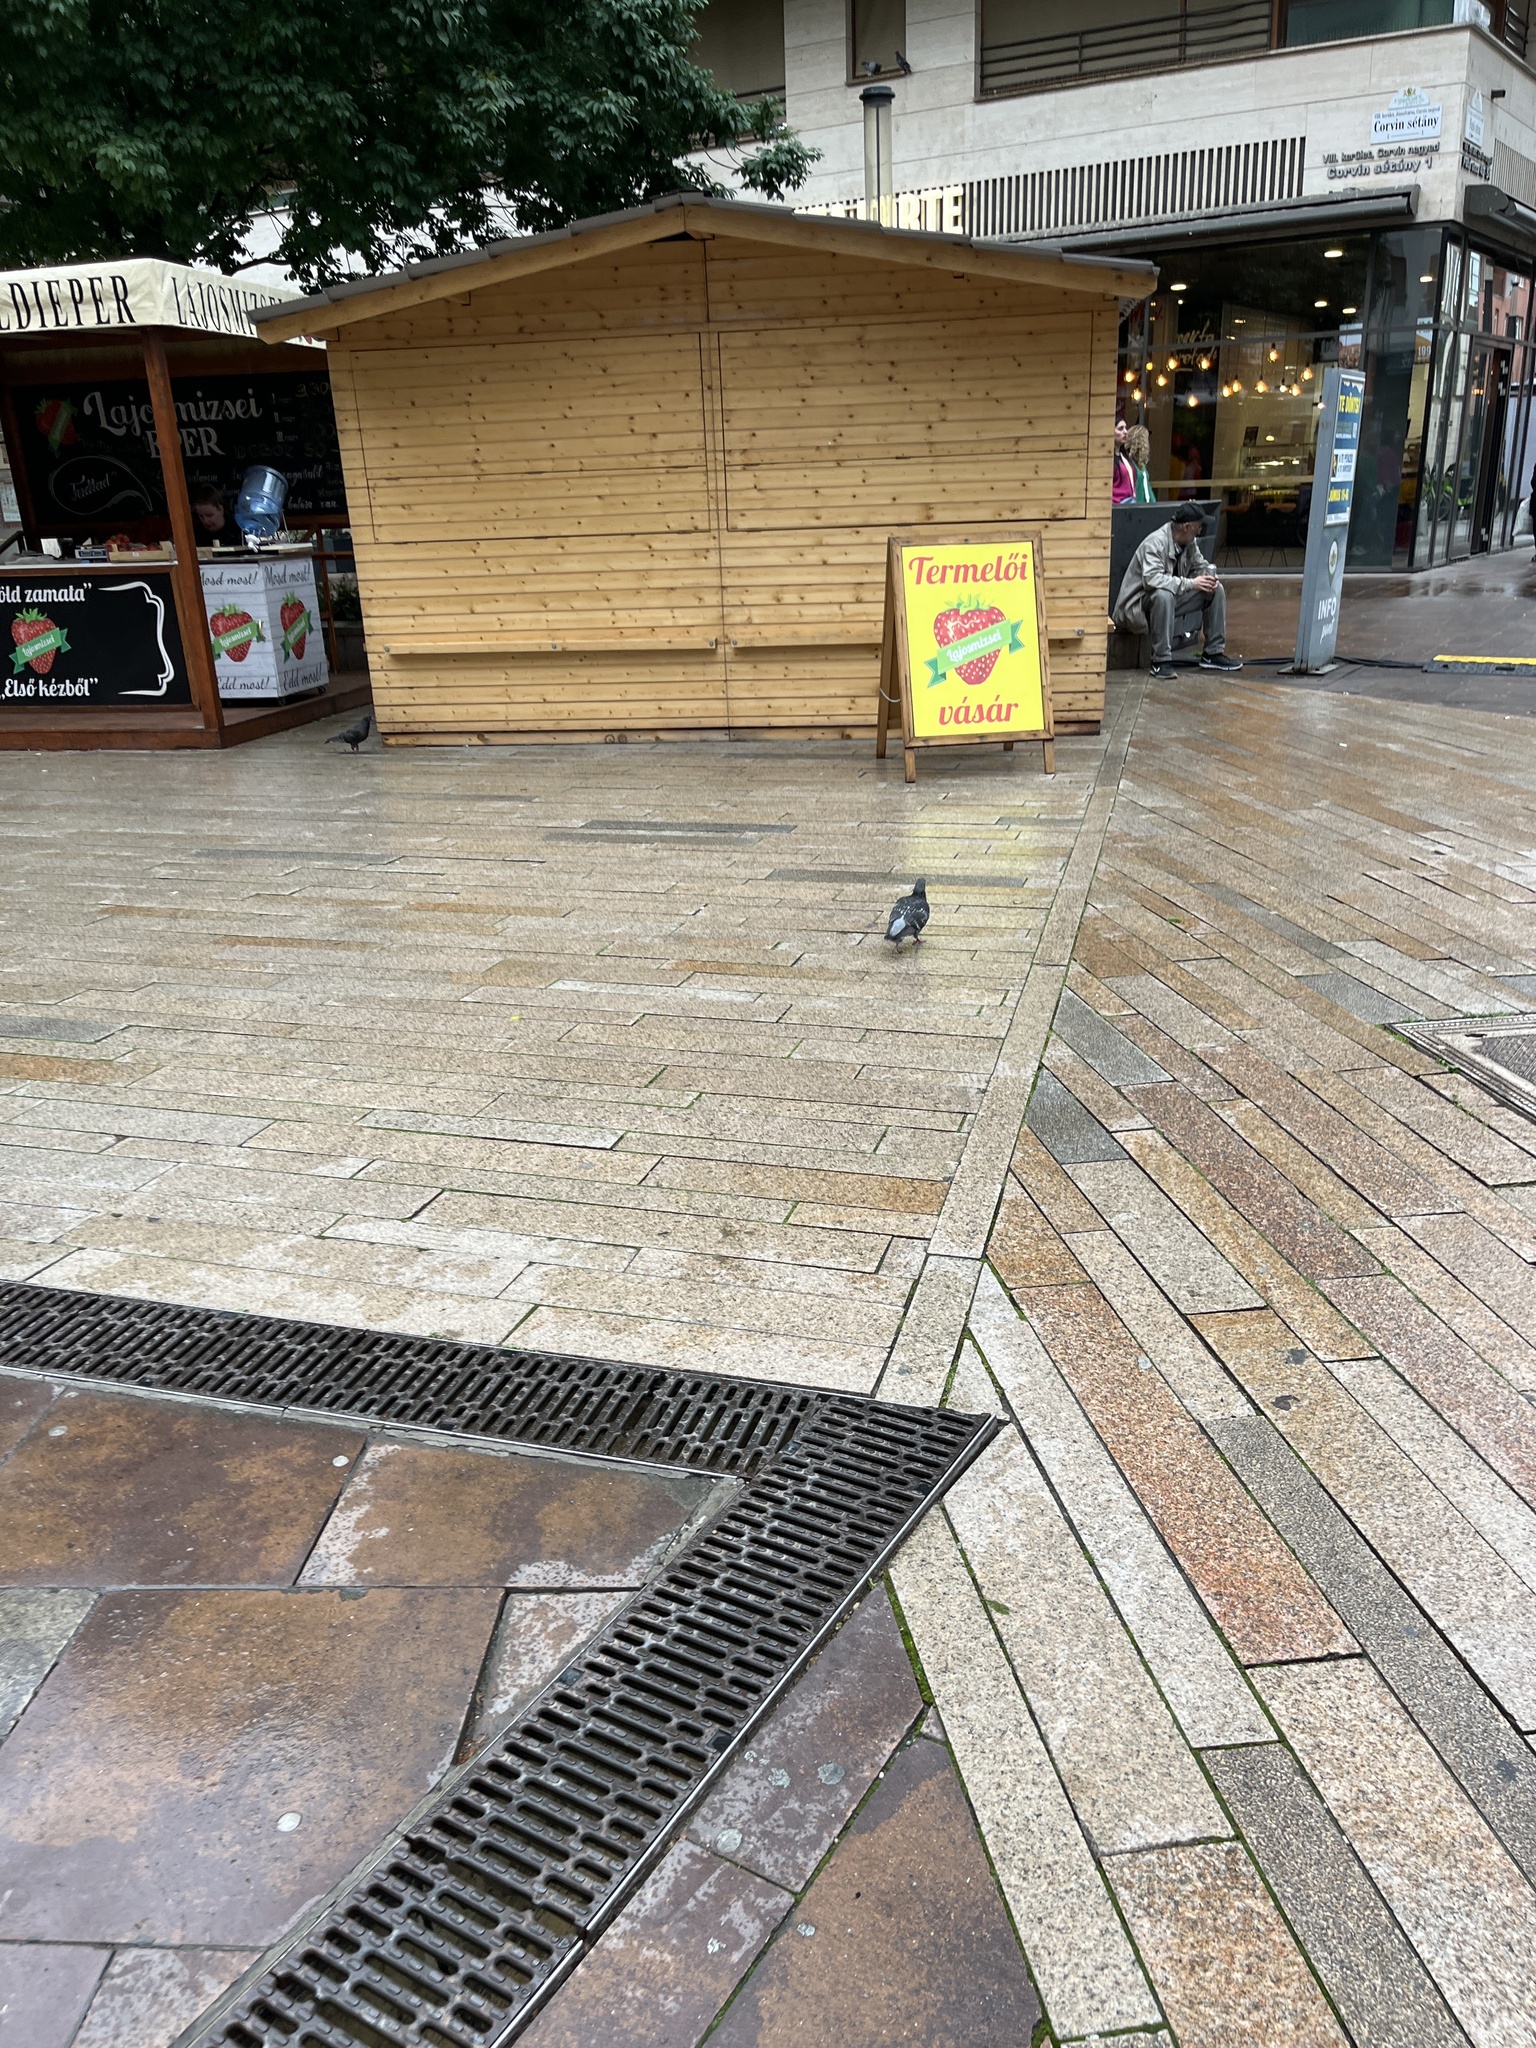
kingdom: Animalia
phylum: Chordata
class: Aves
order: Columbiformes
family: Columbidae
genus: Columba
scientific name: Columba livia
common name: Rock pigeon
